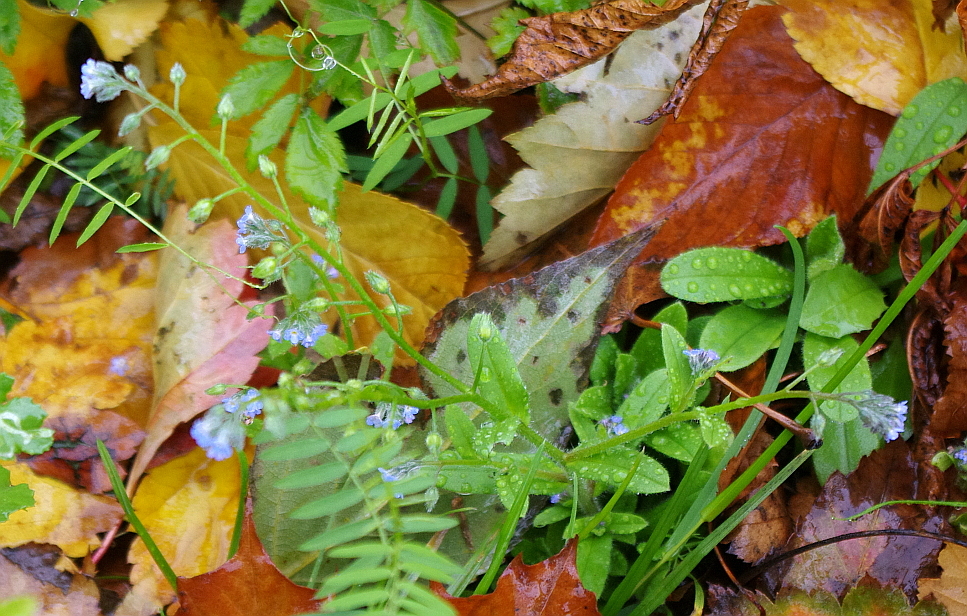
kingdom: Plantae
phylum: Tracheophyta
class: Magnoliopsida
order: Boraginales
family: Boraginaceae
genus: Myosotis
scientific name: Myosotis arvensis
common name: Field forget-me-not
